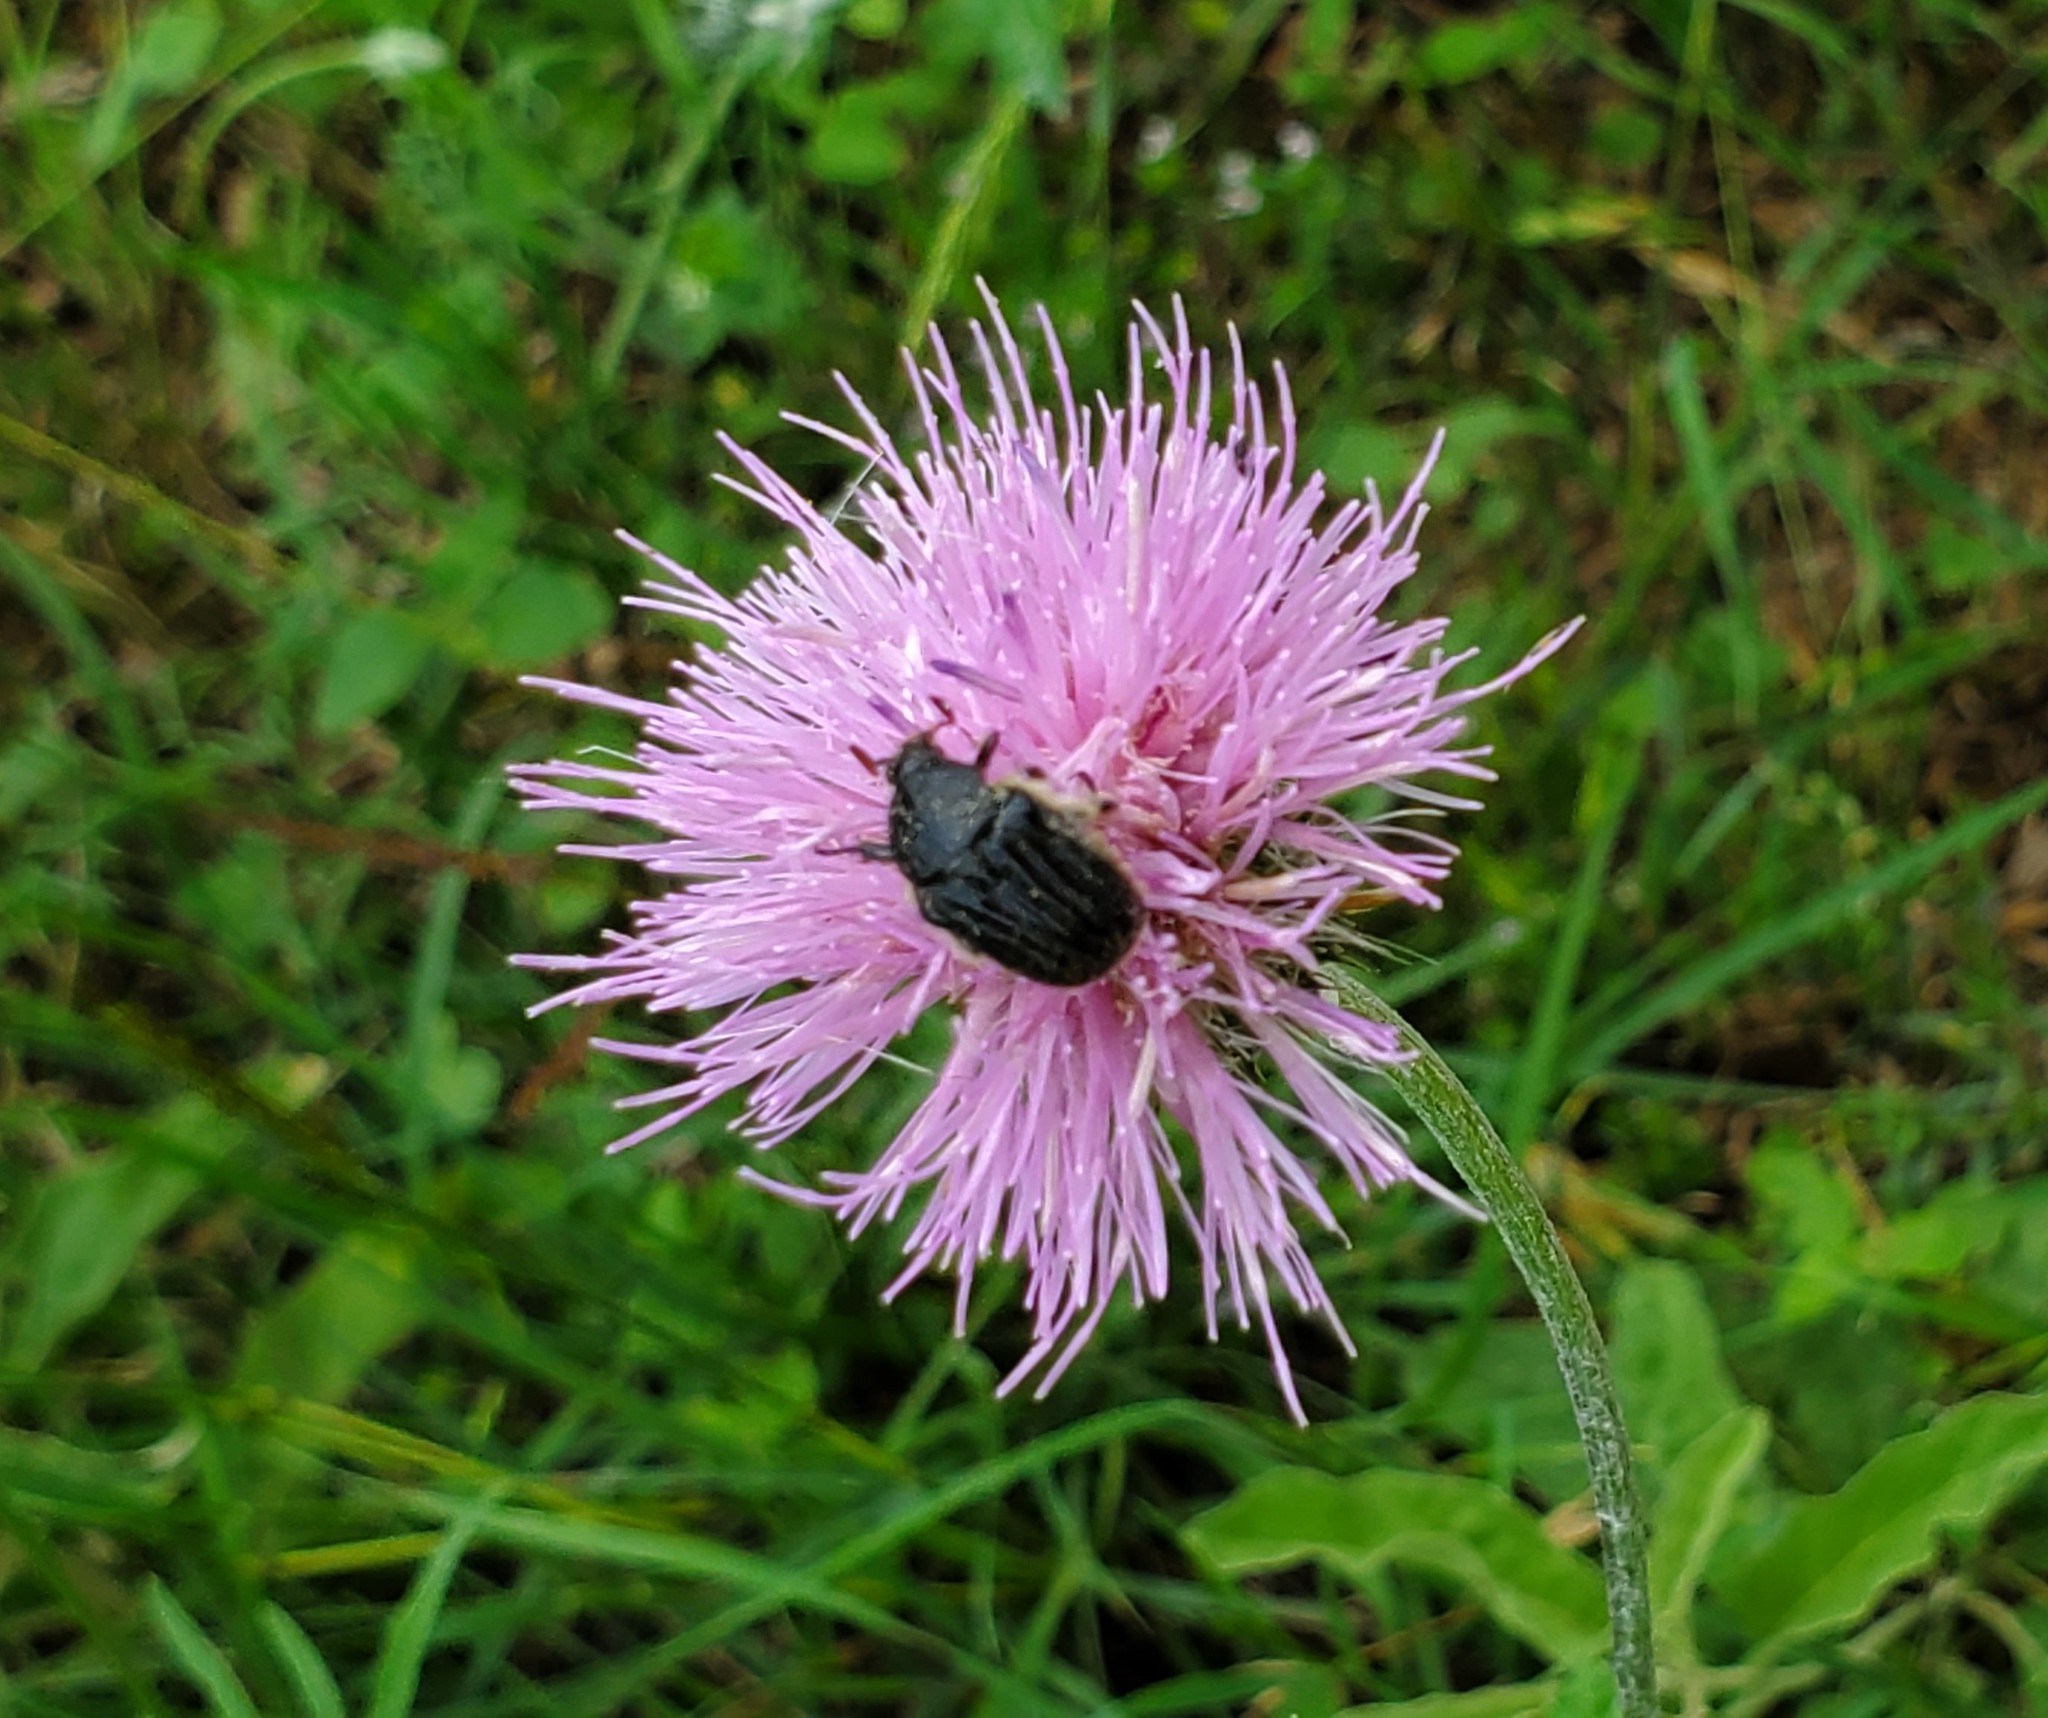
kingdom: Animalia
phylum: Arthropoda
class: Insecta
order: Coleoptera
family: Scarabaeidae
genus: Euphoria
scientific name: Euphoria sepulcralis
